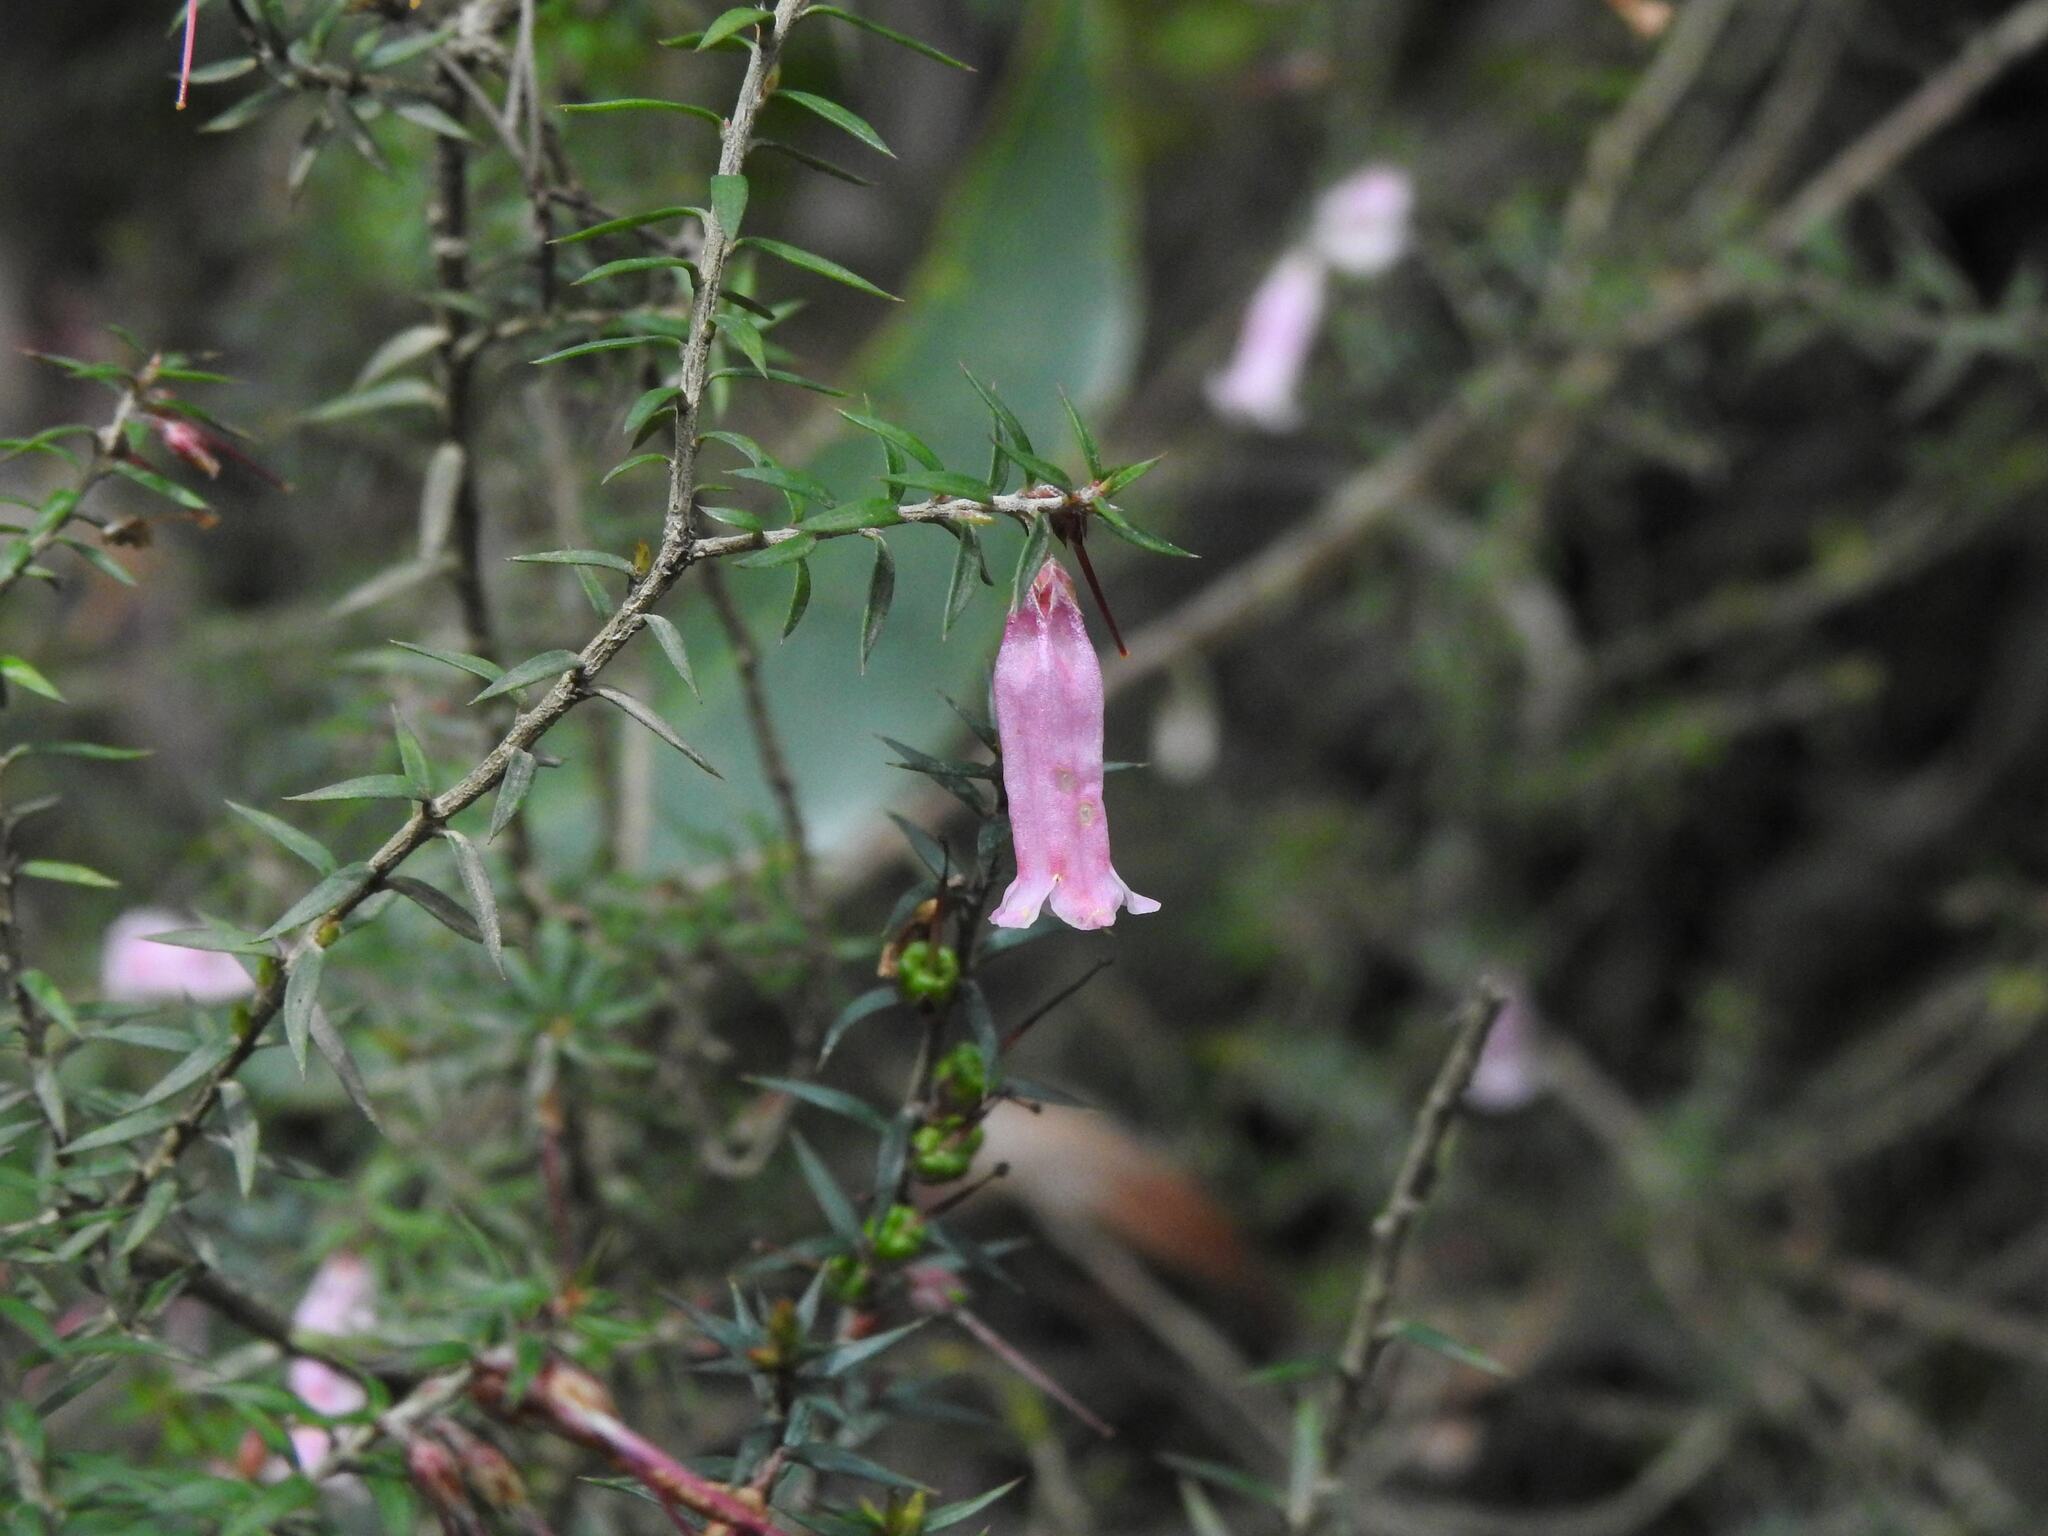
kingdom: Plantae
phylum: Tracheophyta
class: Magnoliopsida
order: Ericales
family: Ericaceae
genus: Epacris
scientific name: Epacris impressa
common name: Common-heath
